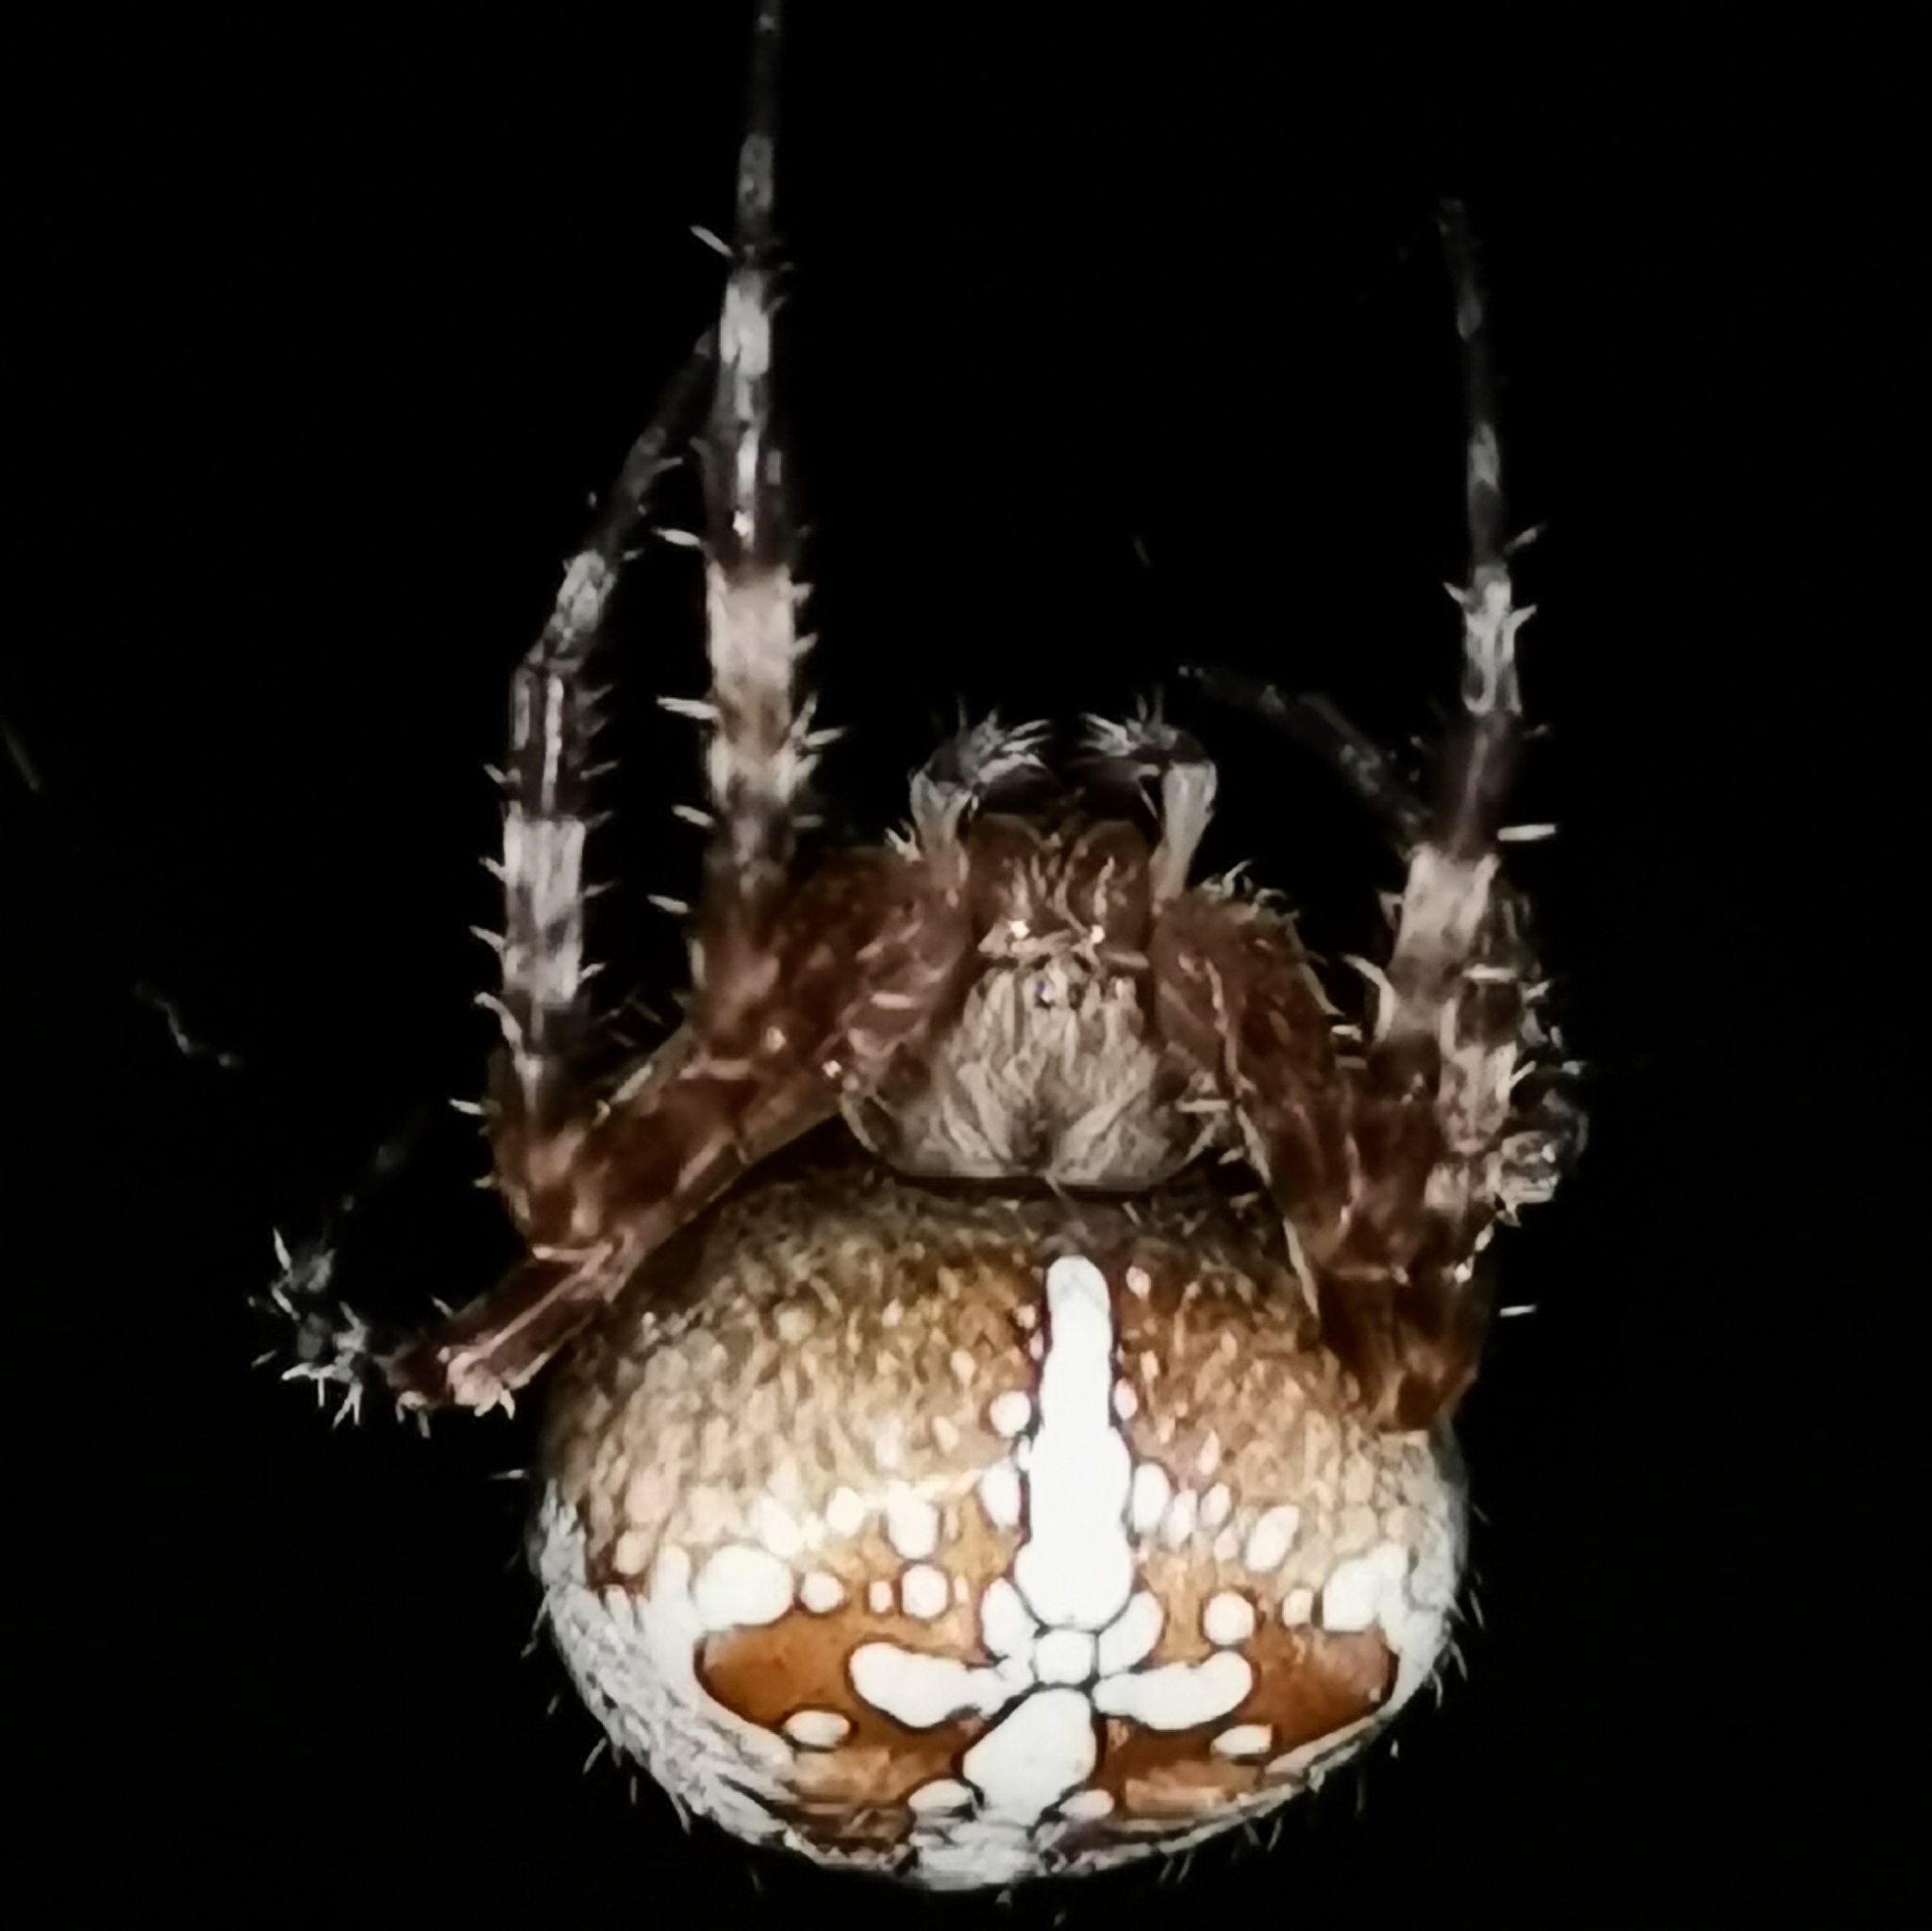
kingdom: Animalia
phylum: Arthropoda
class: Arachnida
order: Araneae
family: Araneidae
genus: Araneus
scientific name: Araneus diadematus
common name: Cross orbweaver
